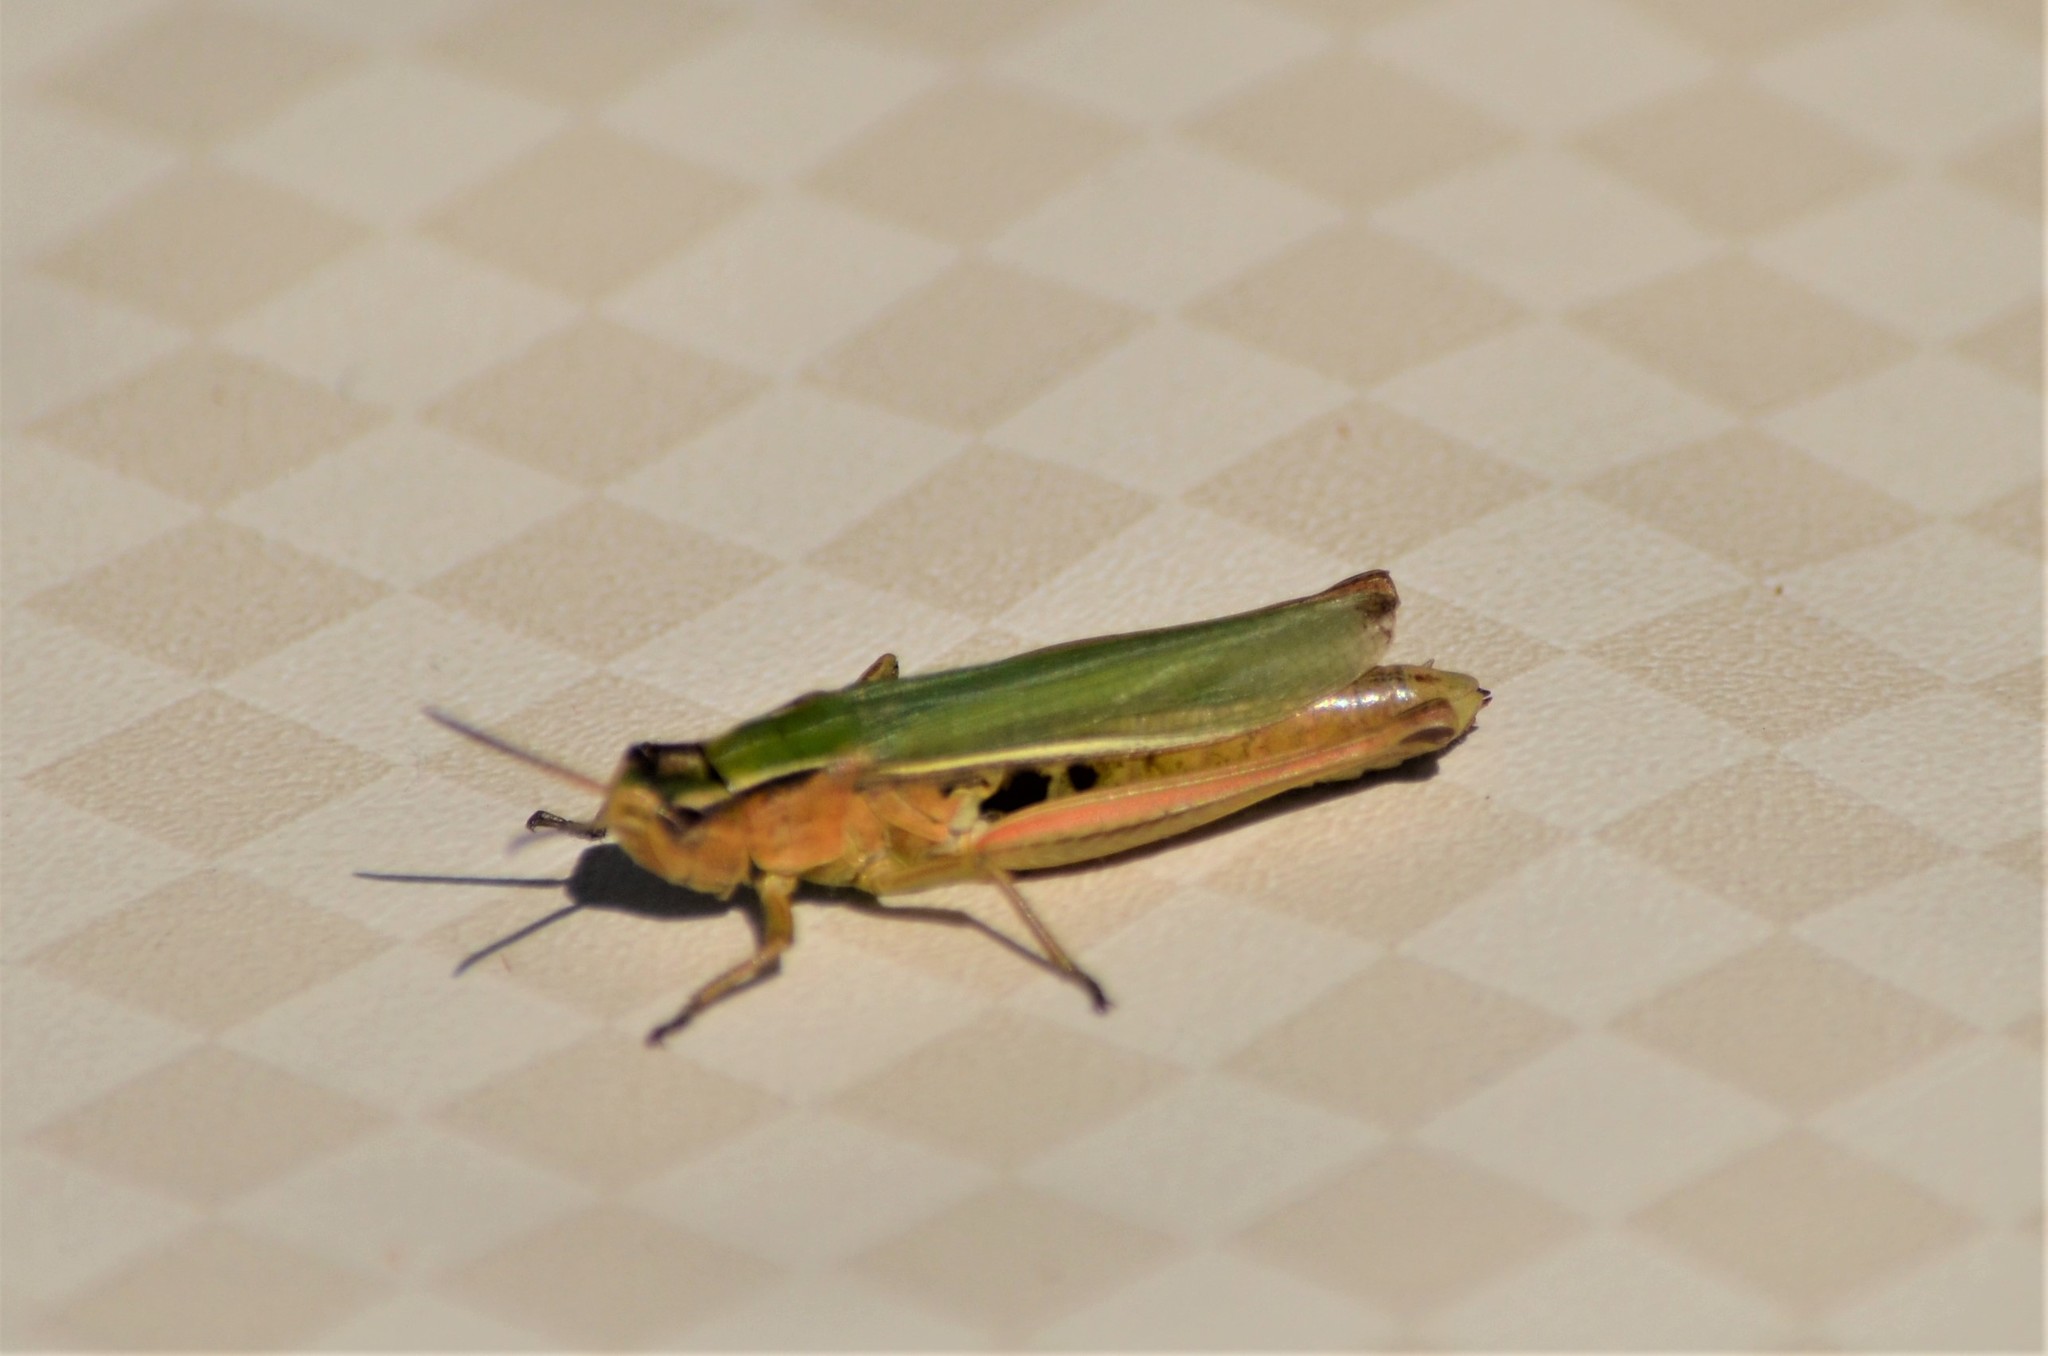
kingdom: Animalia
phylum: Arthropoda
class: Insecta
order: Orthoptera
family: Acrididae
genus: Chorthippus
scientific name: Chorthippus albomarginatus
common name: Lesser marsh grasshopper
